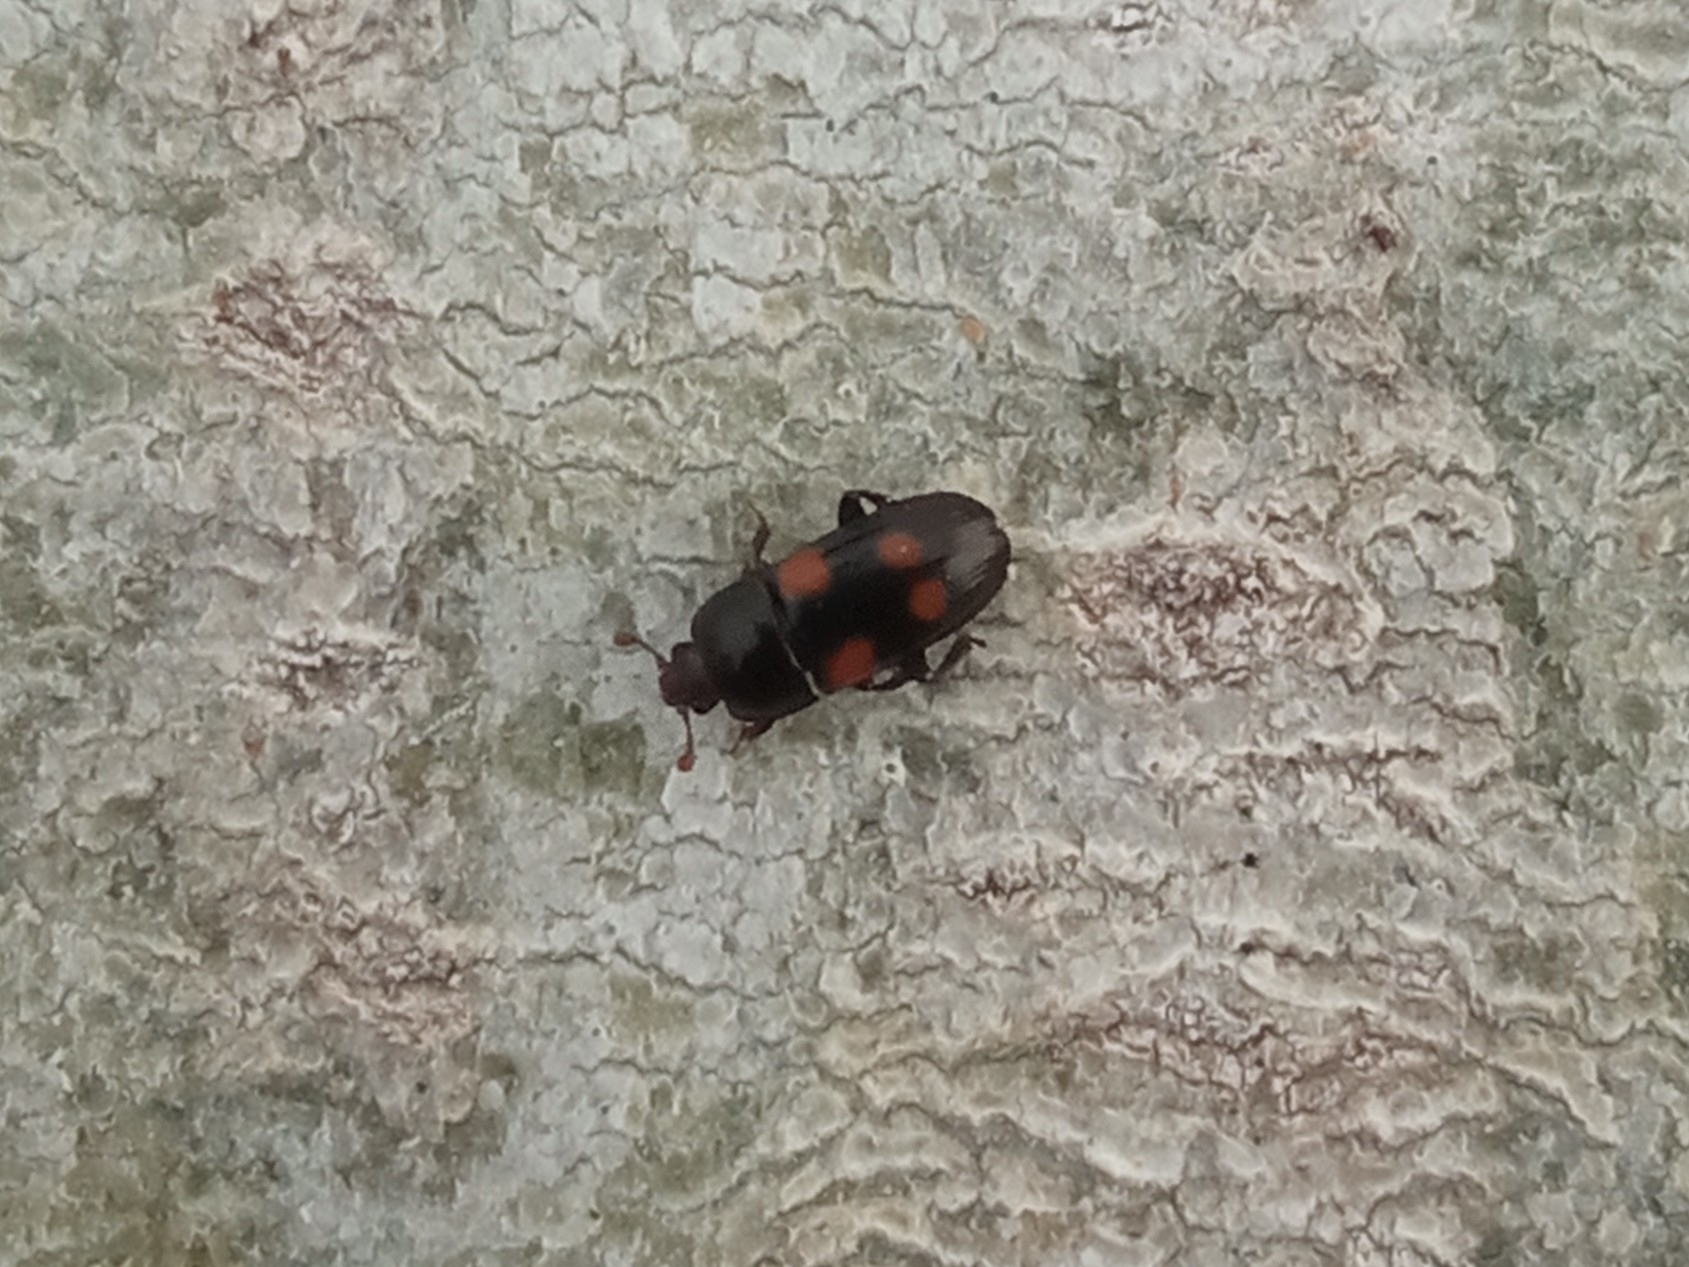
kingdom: Animalia
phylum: Arthropoda
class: Insecta
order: Coleoptera
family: Nitidulidae
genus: Ipidia
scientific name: Ipidia binotata
